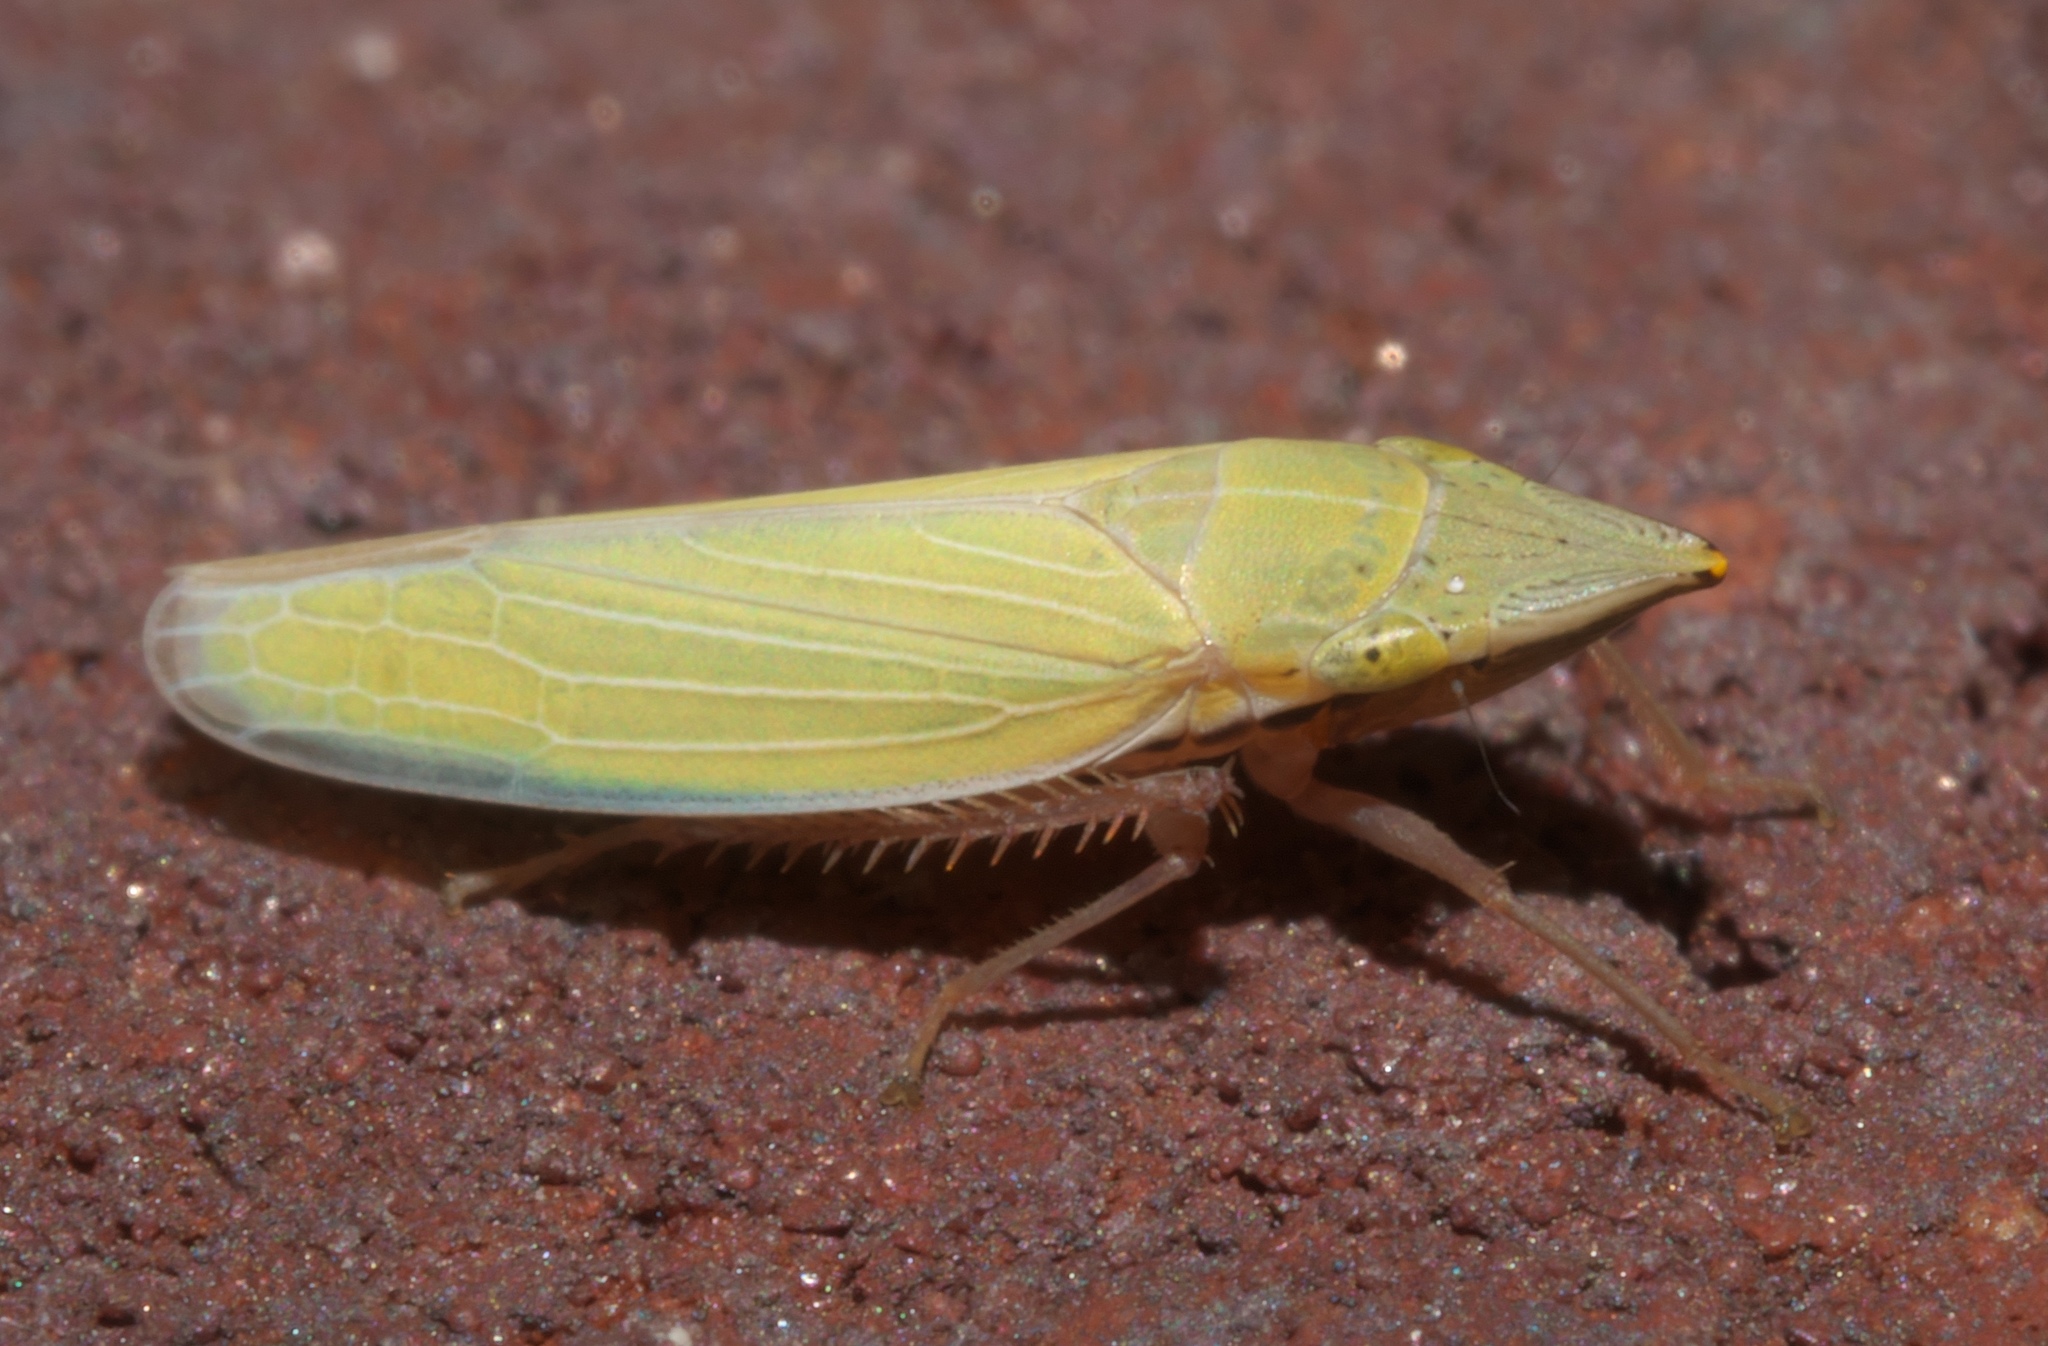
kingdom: Animalia
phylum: Arthropoda
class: Insecta
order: Hemiptera
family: Cicadellidae
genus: Draeculacephala
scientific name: Draeculacephala antica
